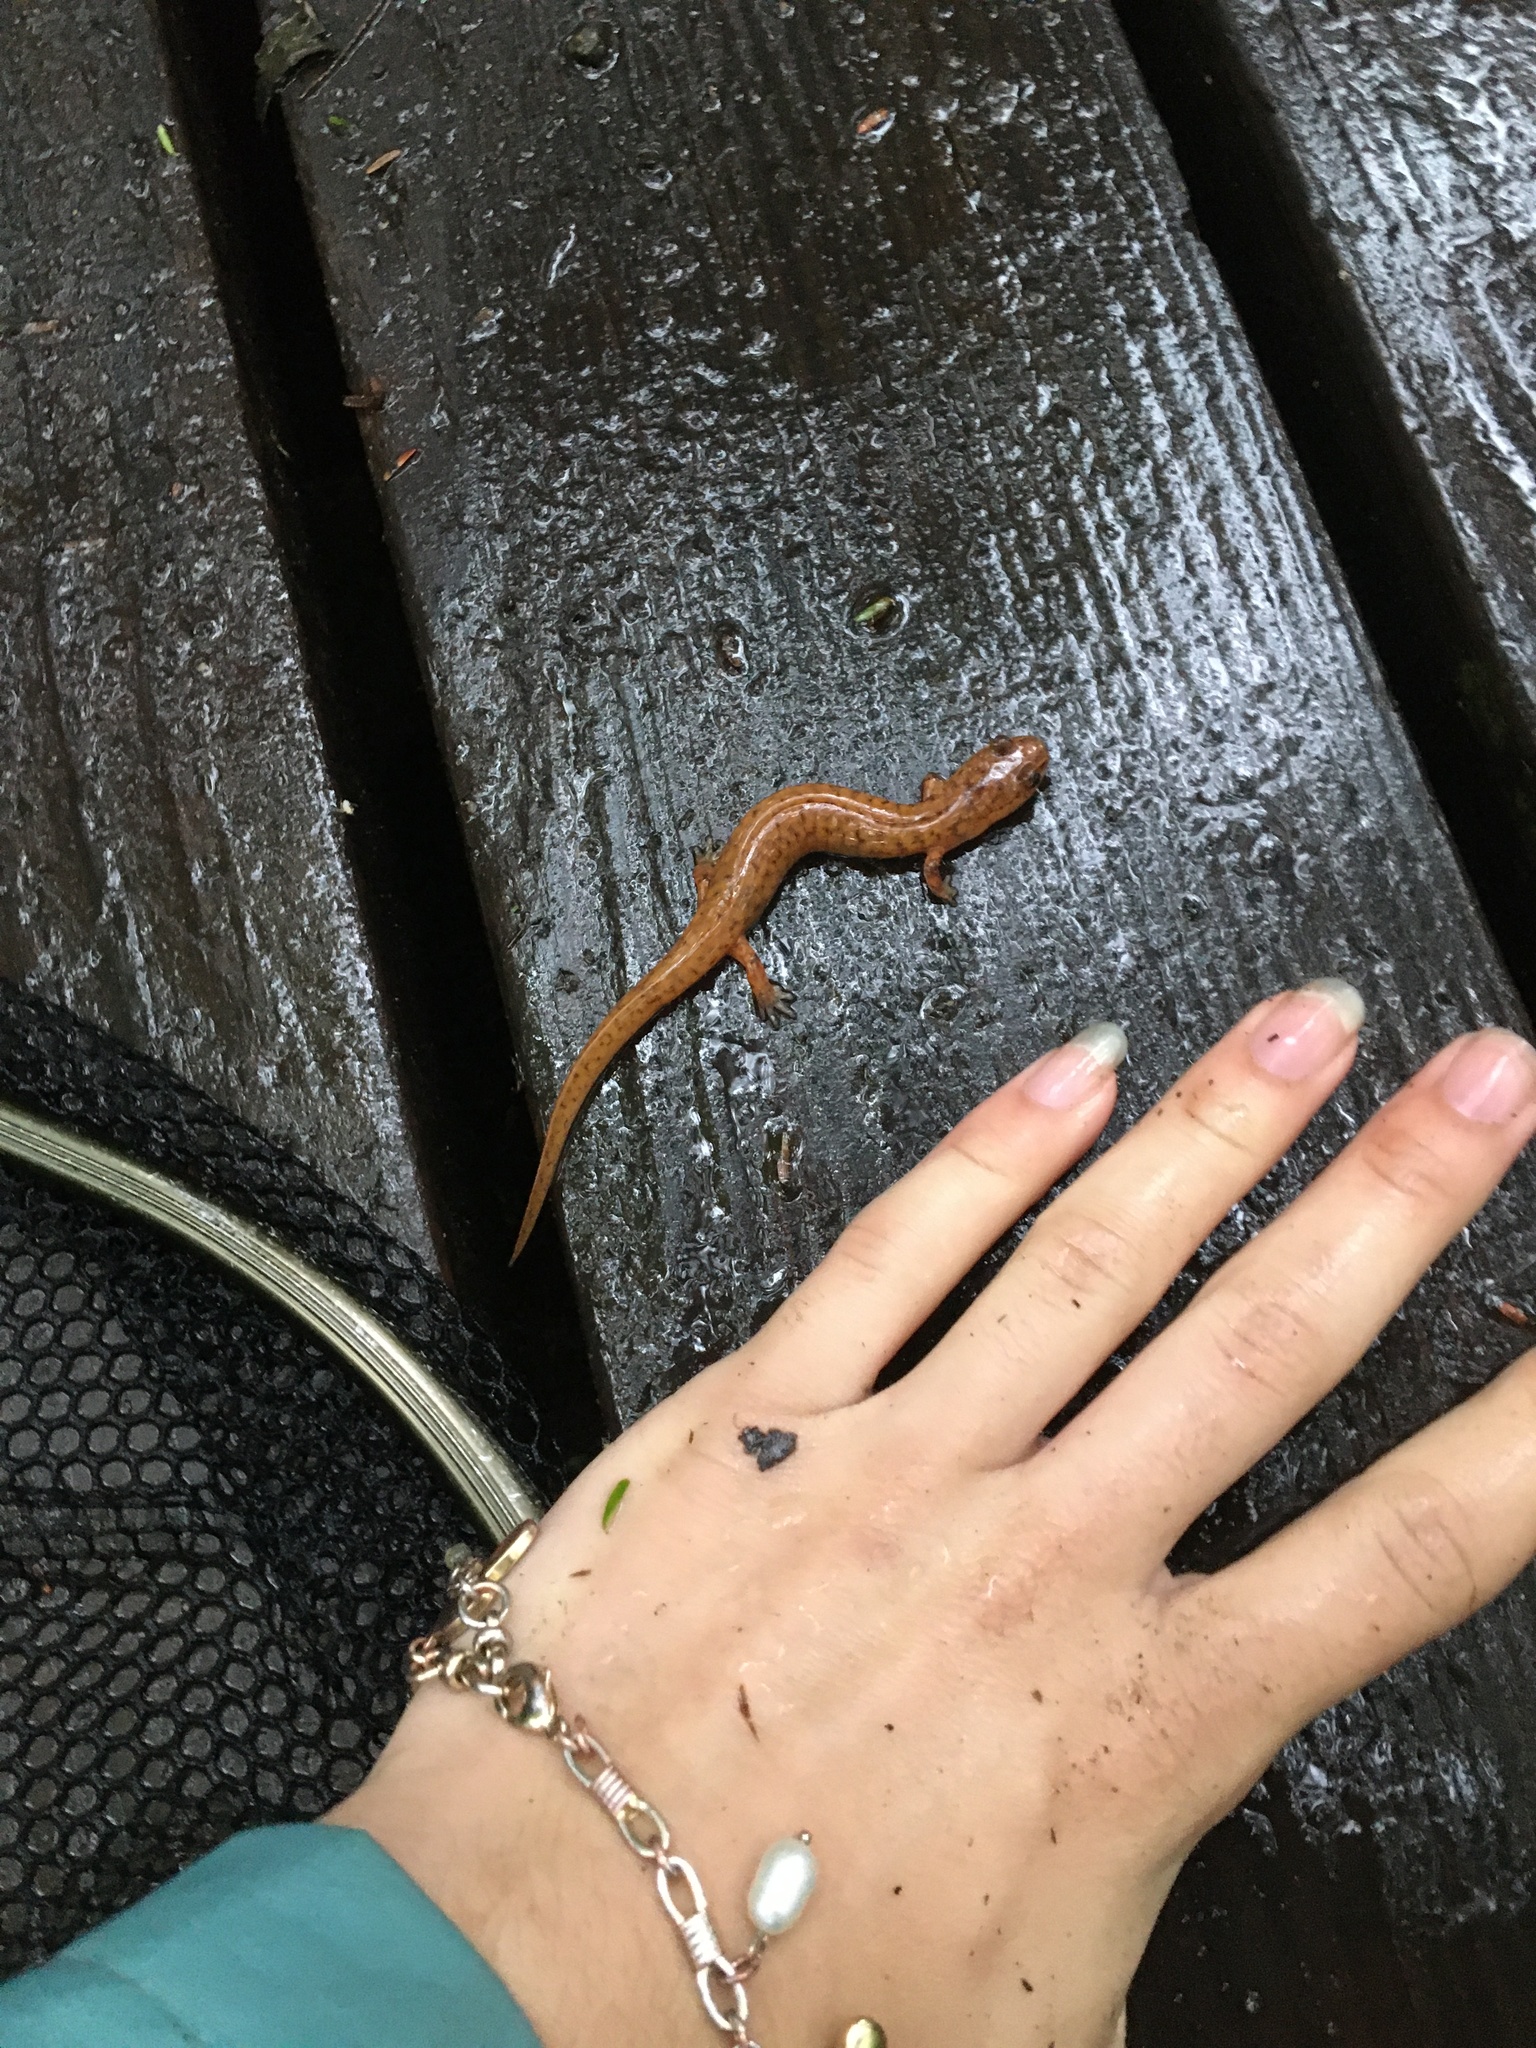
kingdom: Animalia
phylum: Chordata
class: Amphibia
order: Caudata
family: Plethodontidae
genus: Gyrinophilus
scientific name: Gyrinophilus porphyriticus
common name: Spring salamander
